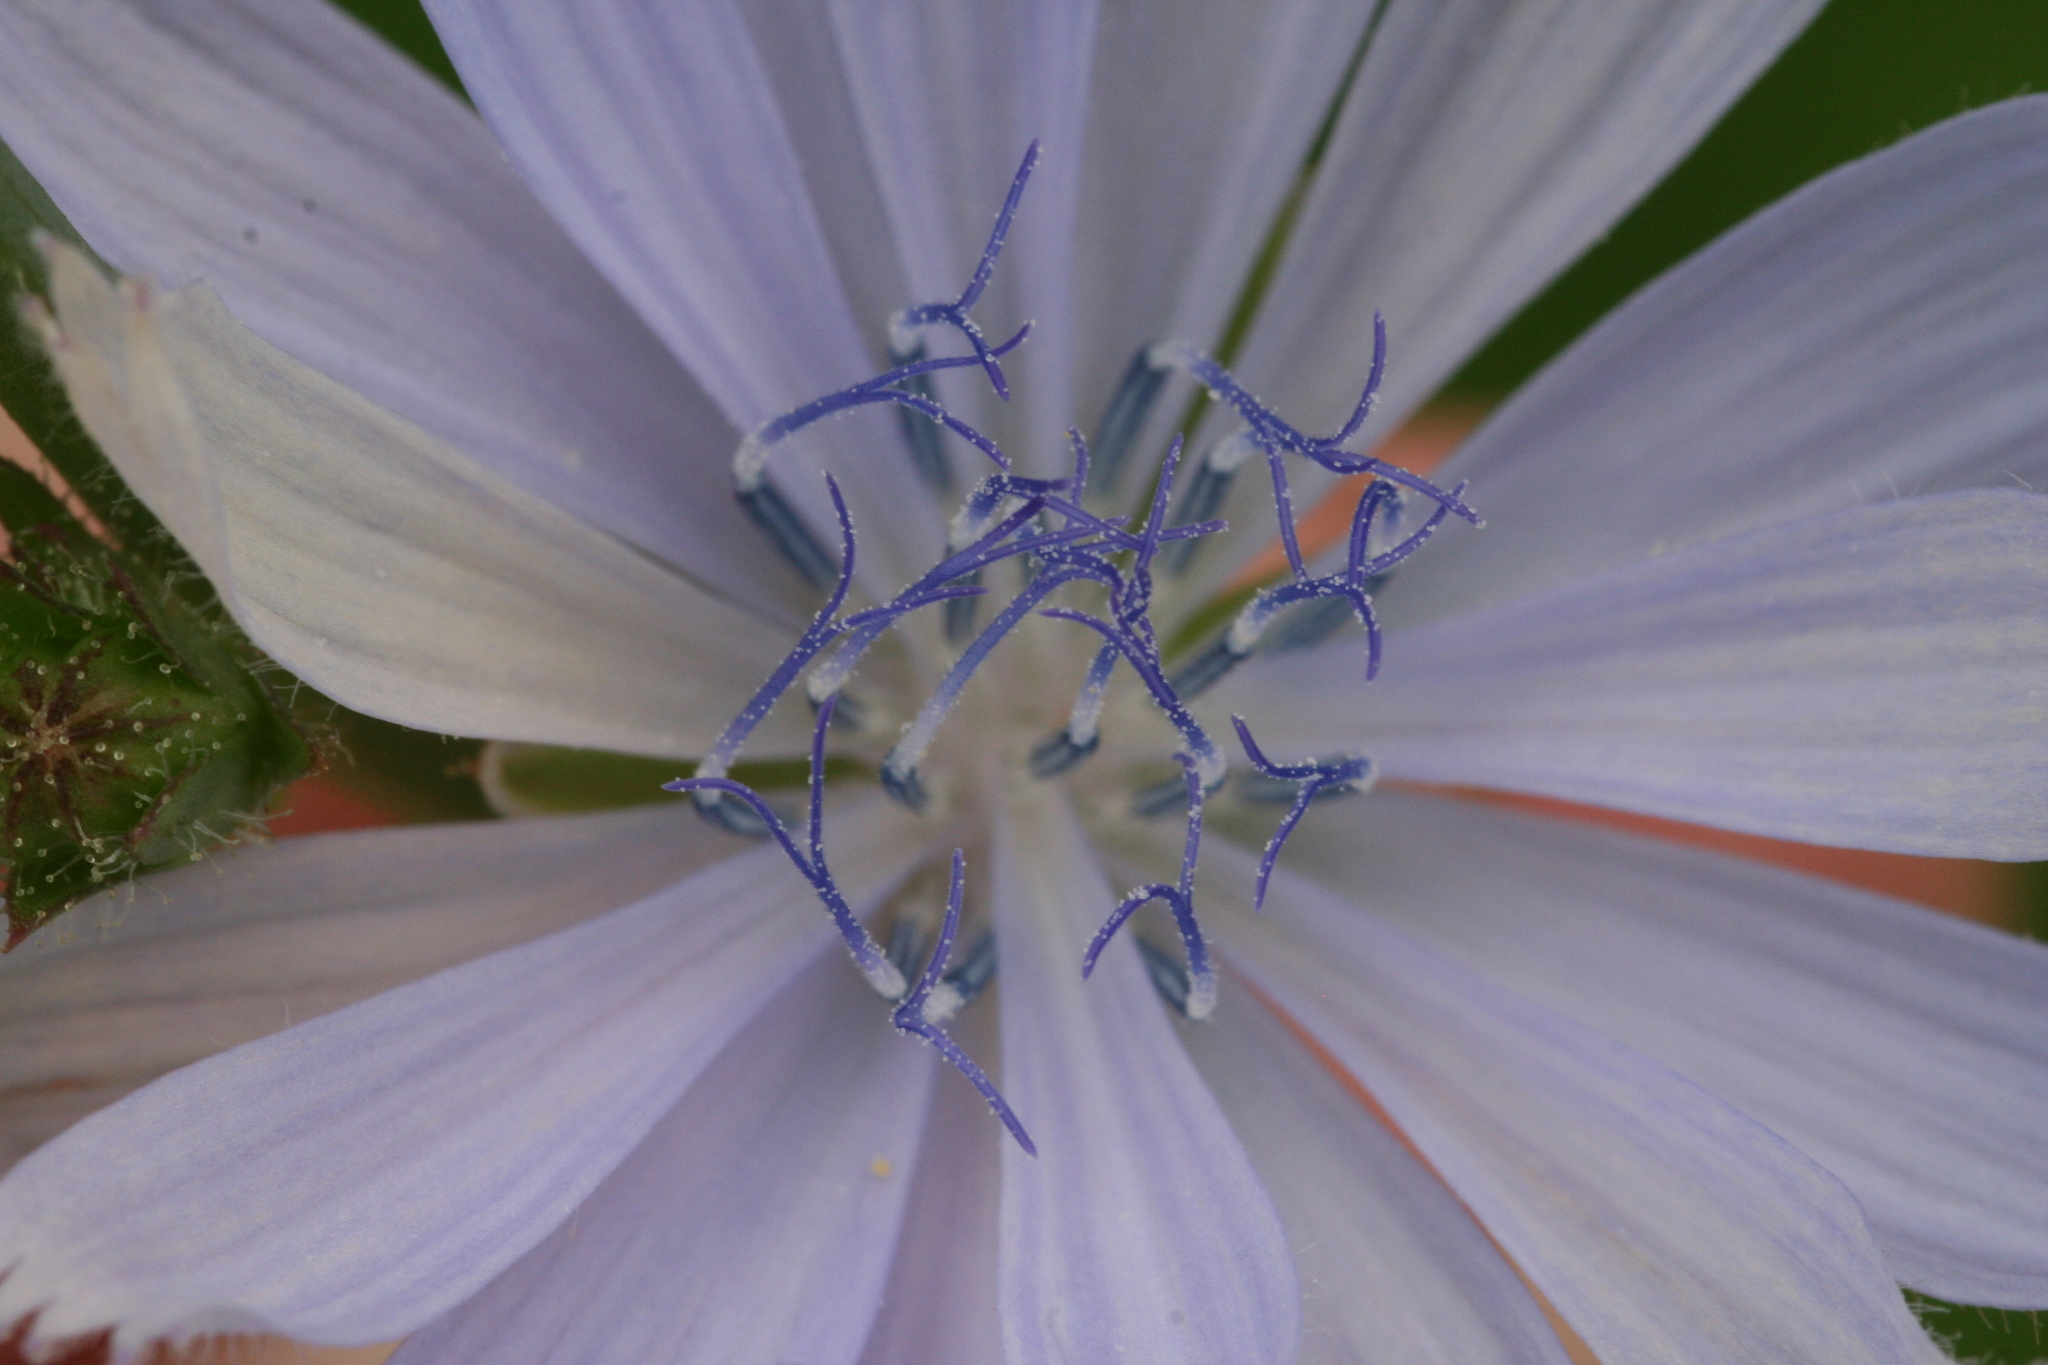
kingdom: Plantae
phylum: Tracheophyta
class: Magnoliopsida
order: Asterales
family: Asteraceae
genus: Cichorium
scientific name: Cichorium intybus
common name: Chicory
